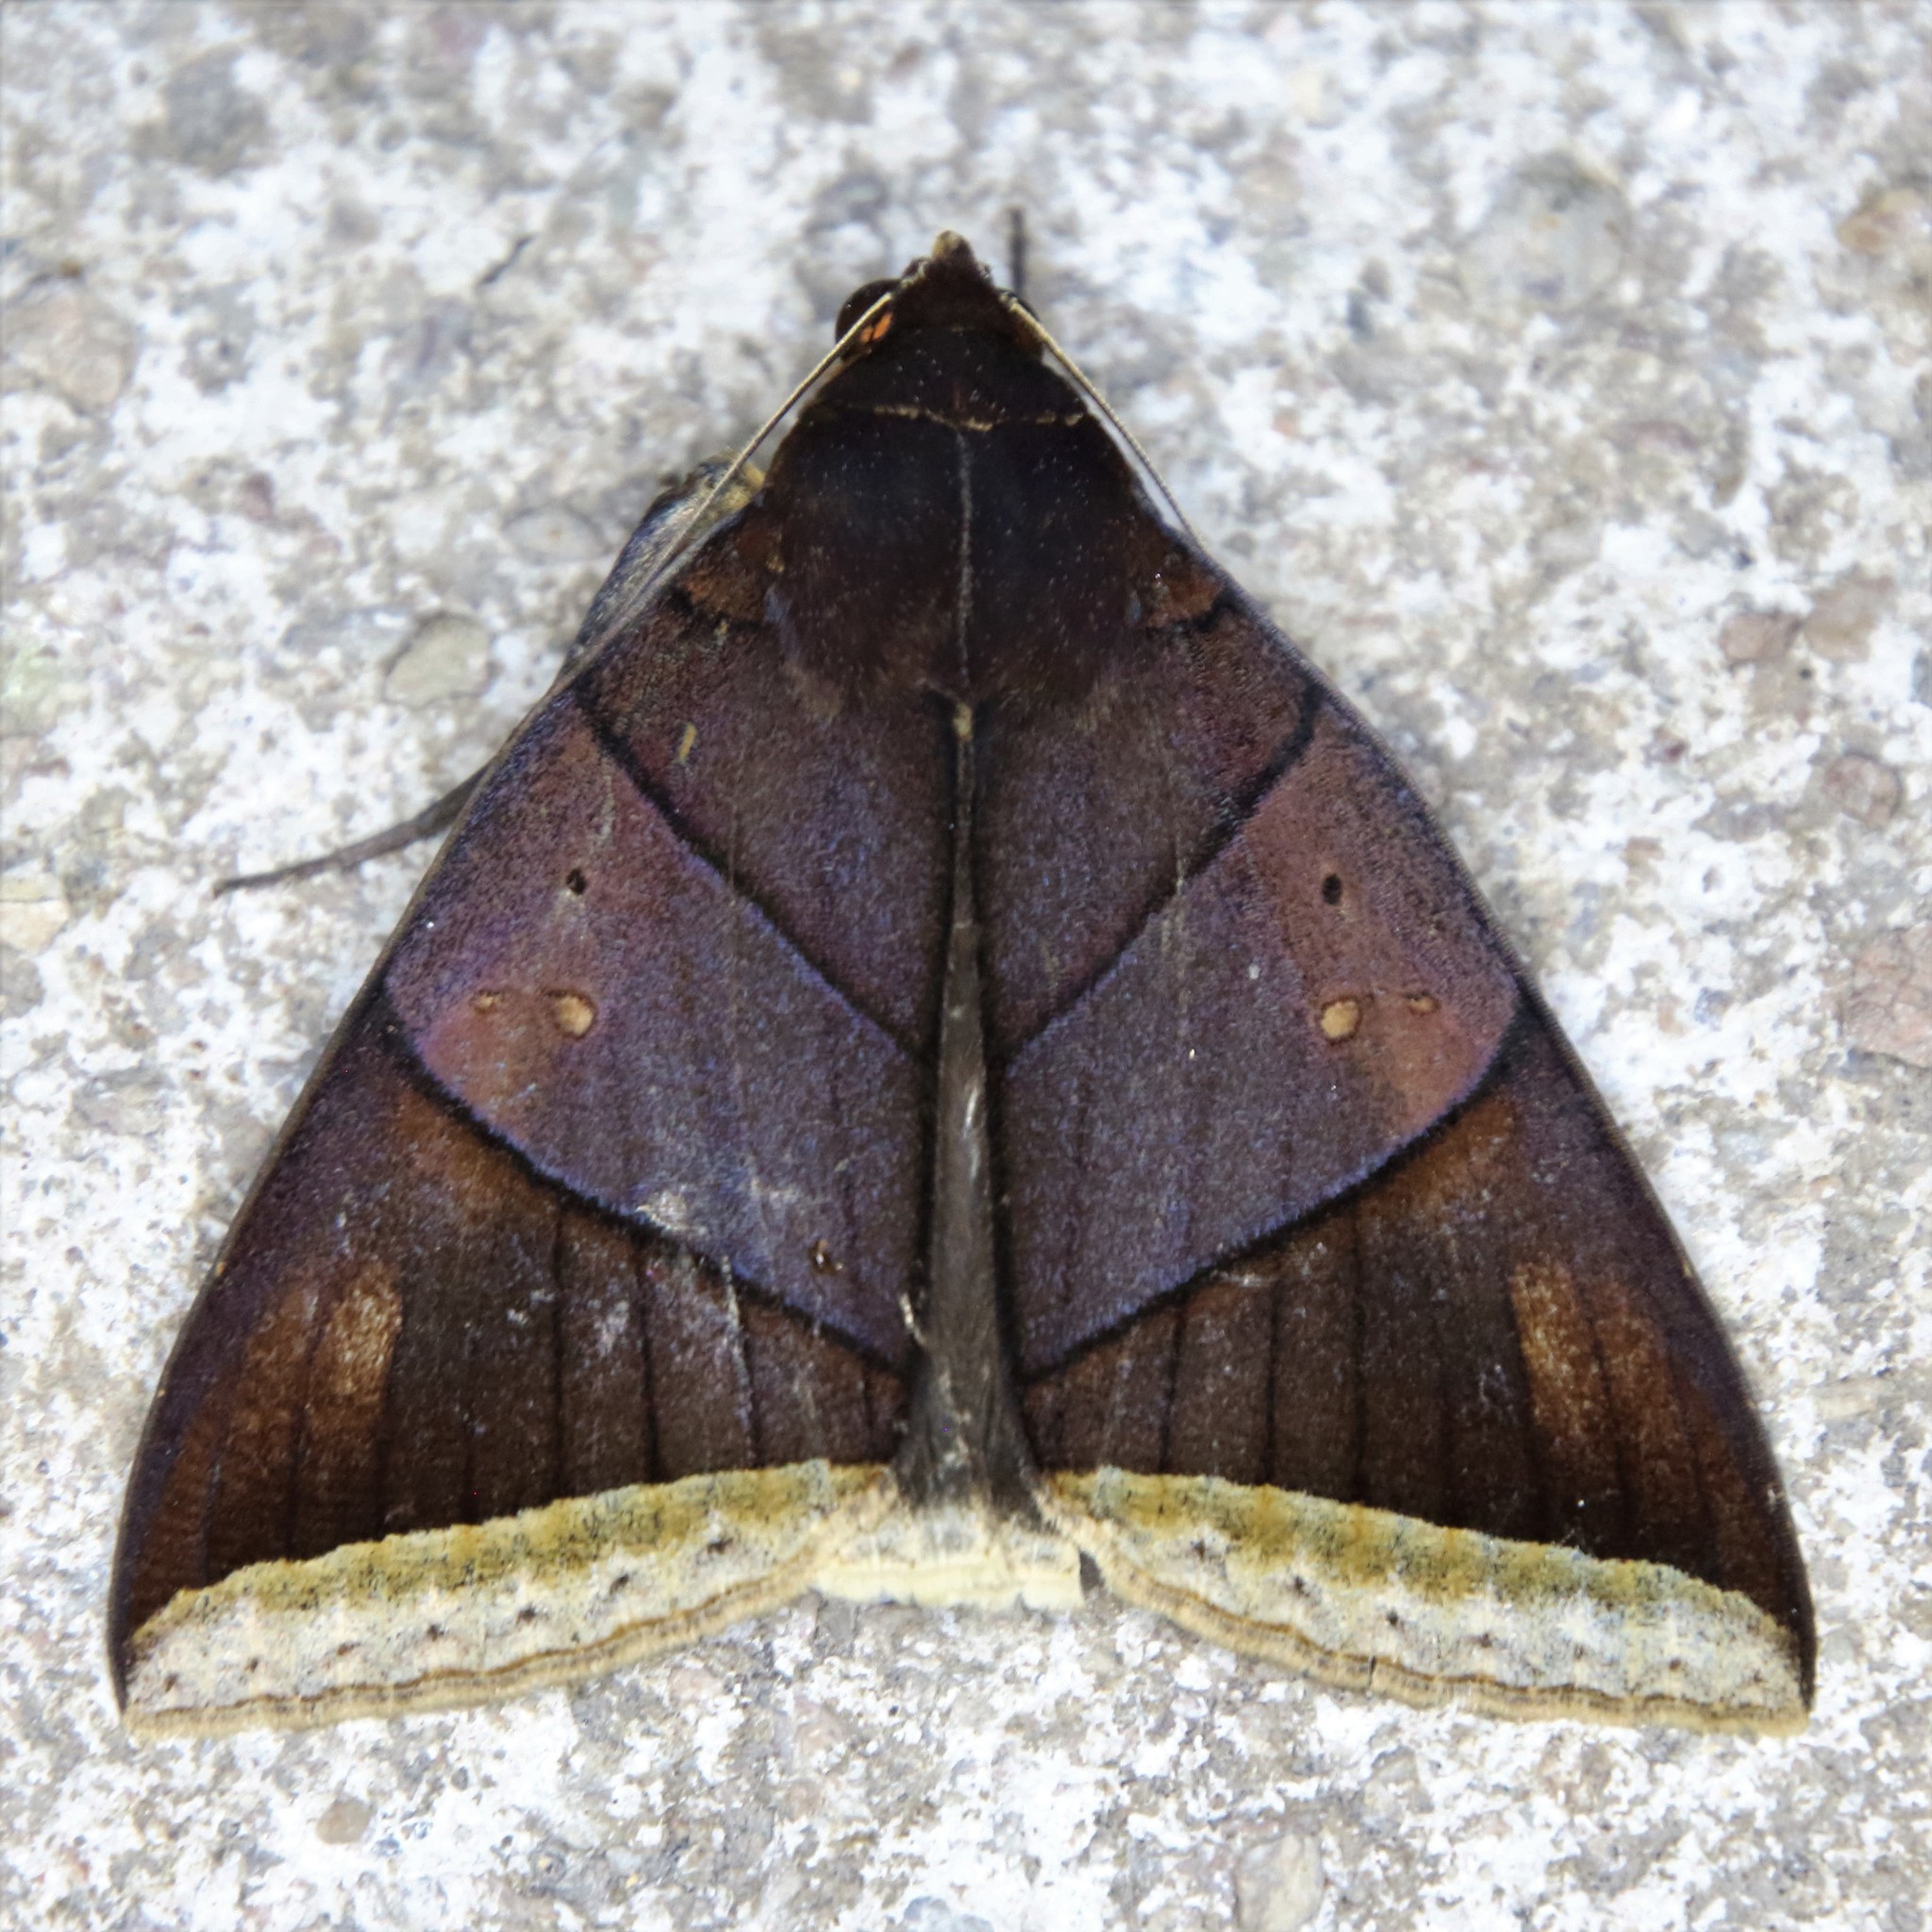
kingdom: Animalia
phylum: Arthropoda
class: Insecta
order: Lepidoptera
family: Erebidae
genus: Artena
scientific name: Artena lacteicincta
